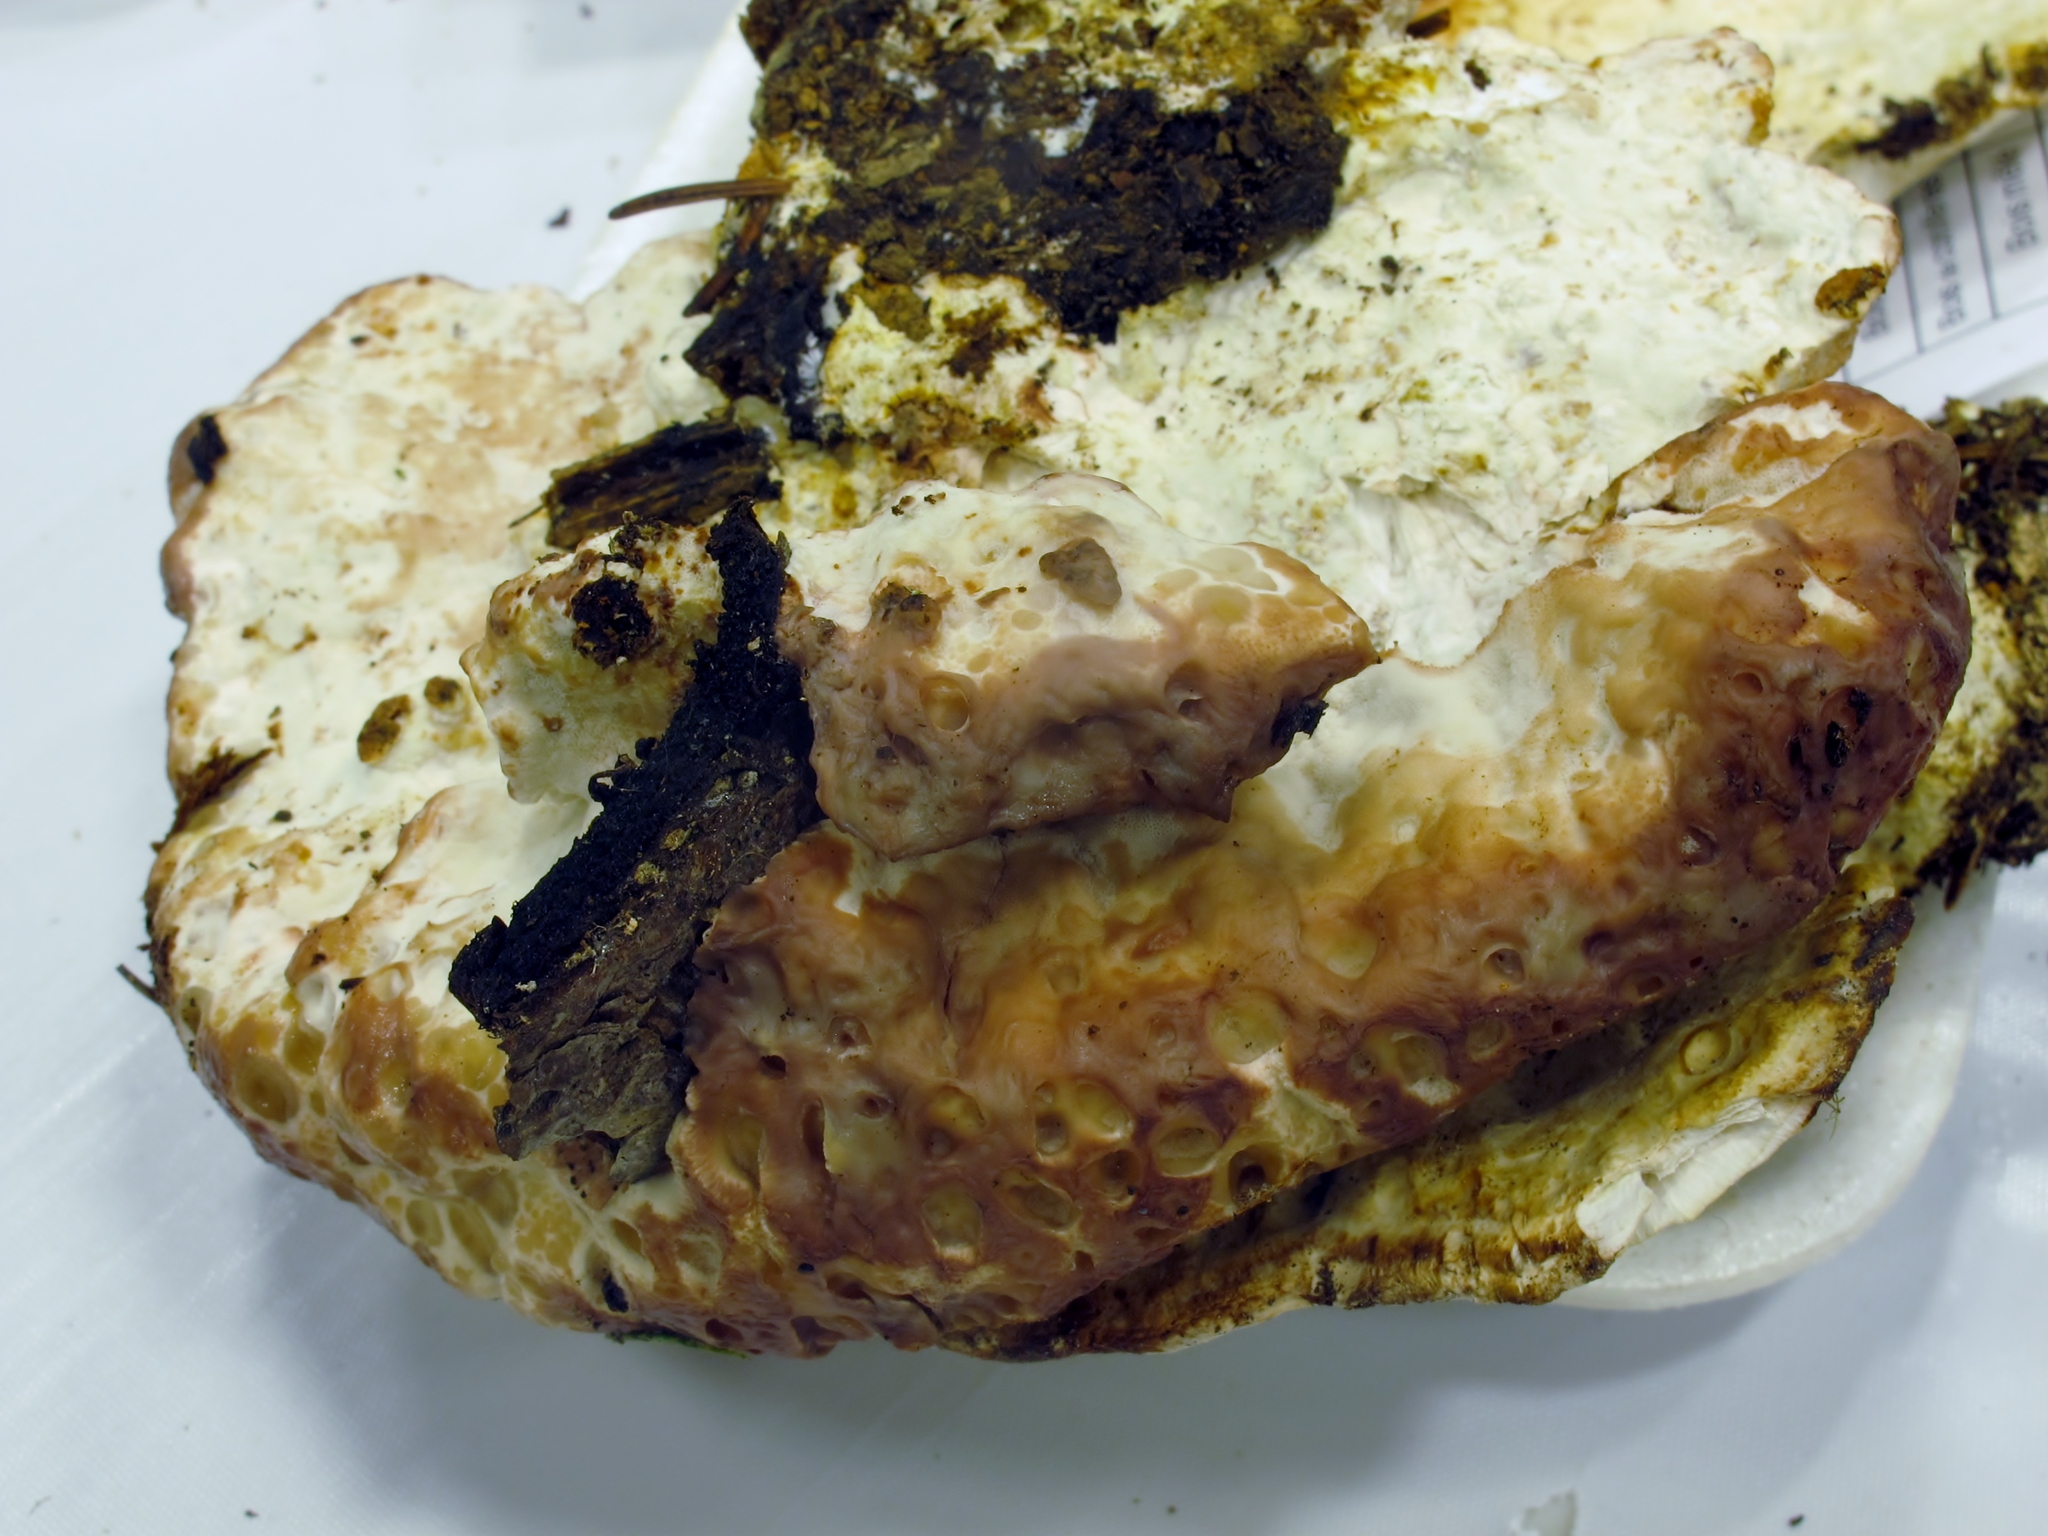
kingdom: Fungi
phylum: Basidiomycota
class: Agaricomycetes
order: Polyporales
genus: Calcipostia
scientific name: Calcipostia guttulata
